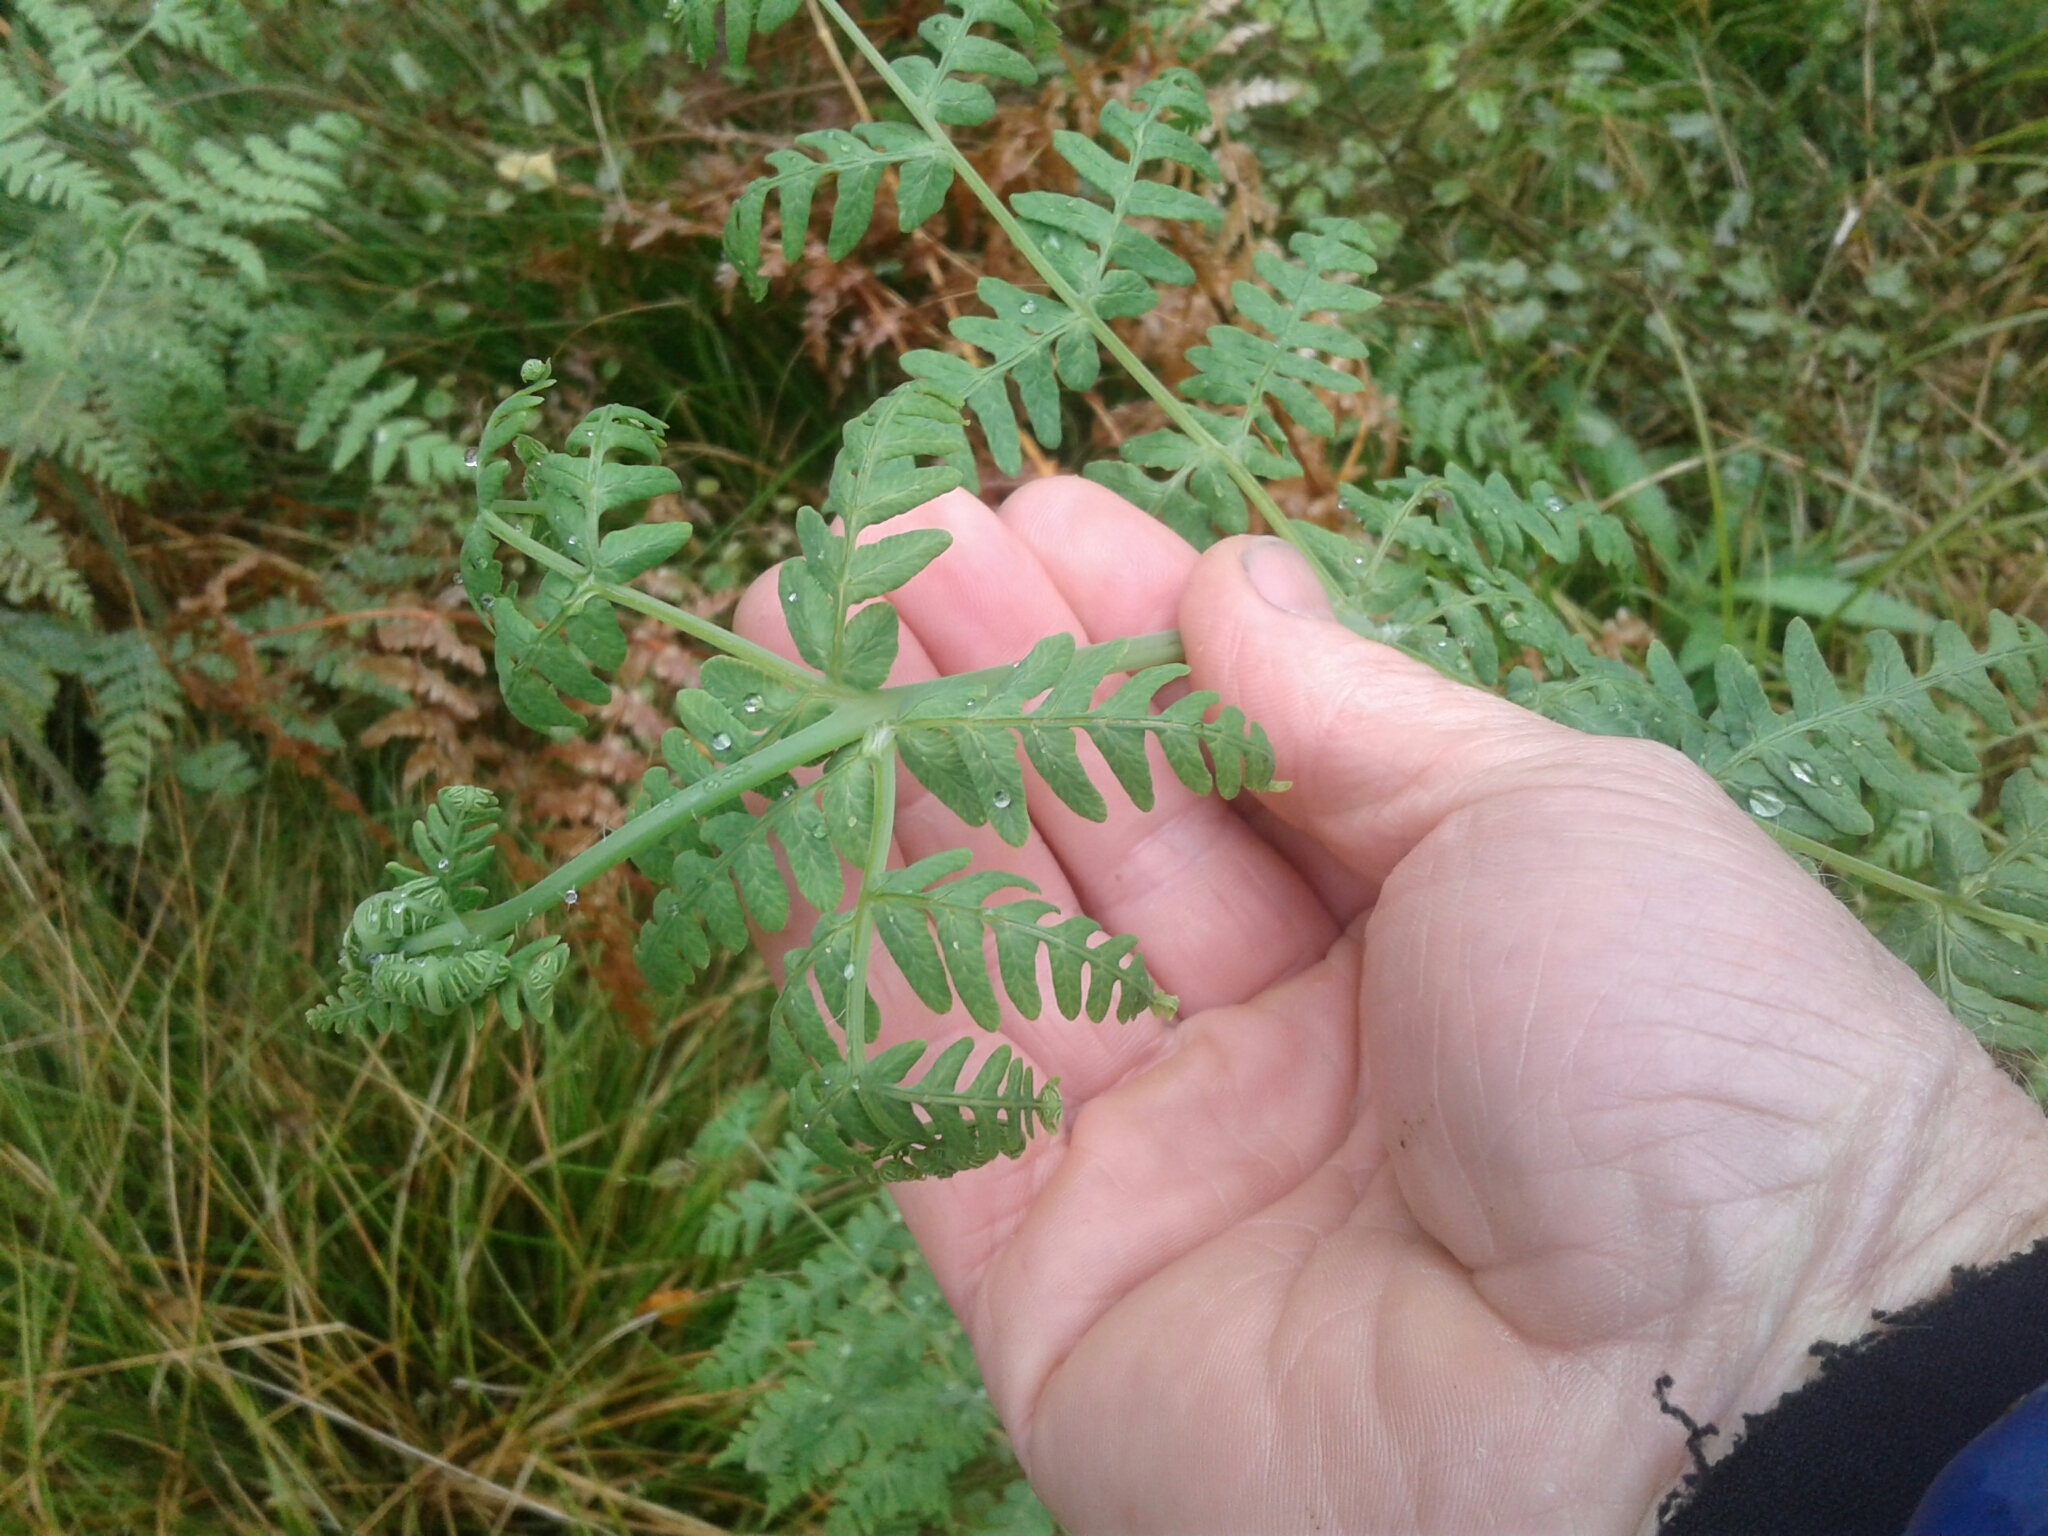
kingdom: Plantae
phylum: Tracheophyta
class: Polypodiopsida
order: Polypodiales
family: Dennstaedtiaceae
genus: Histiopteris
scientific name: Histiopteris incisa
